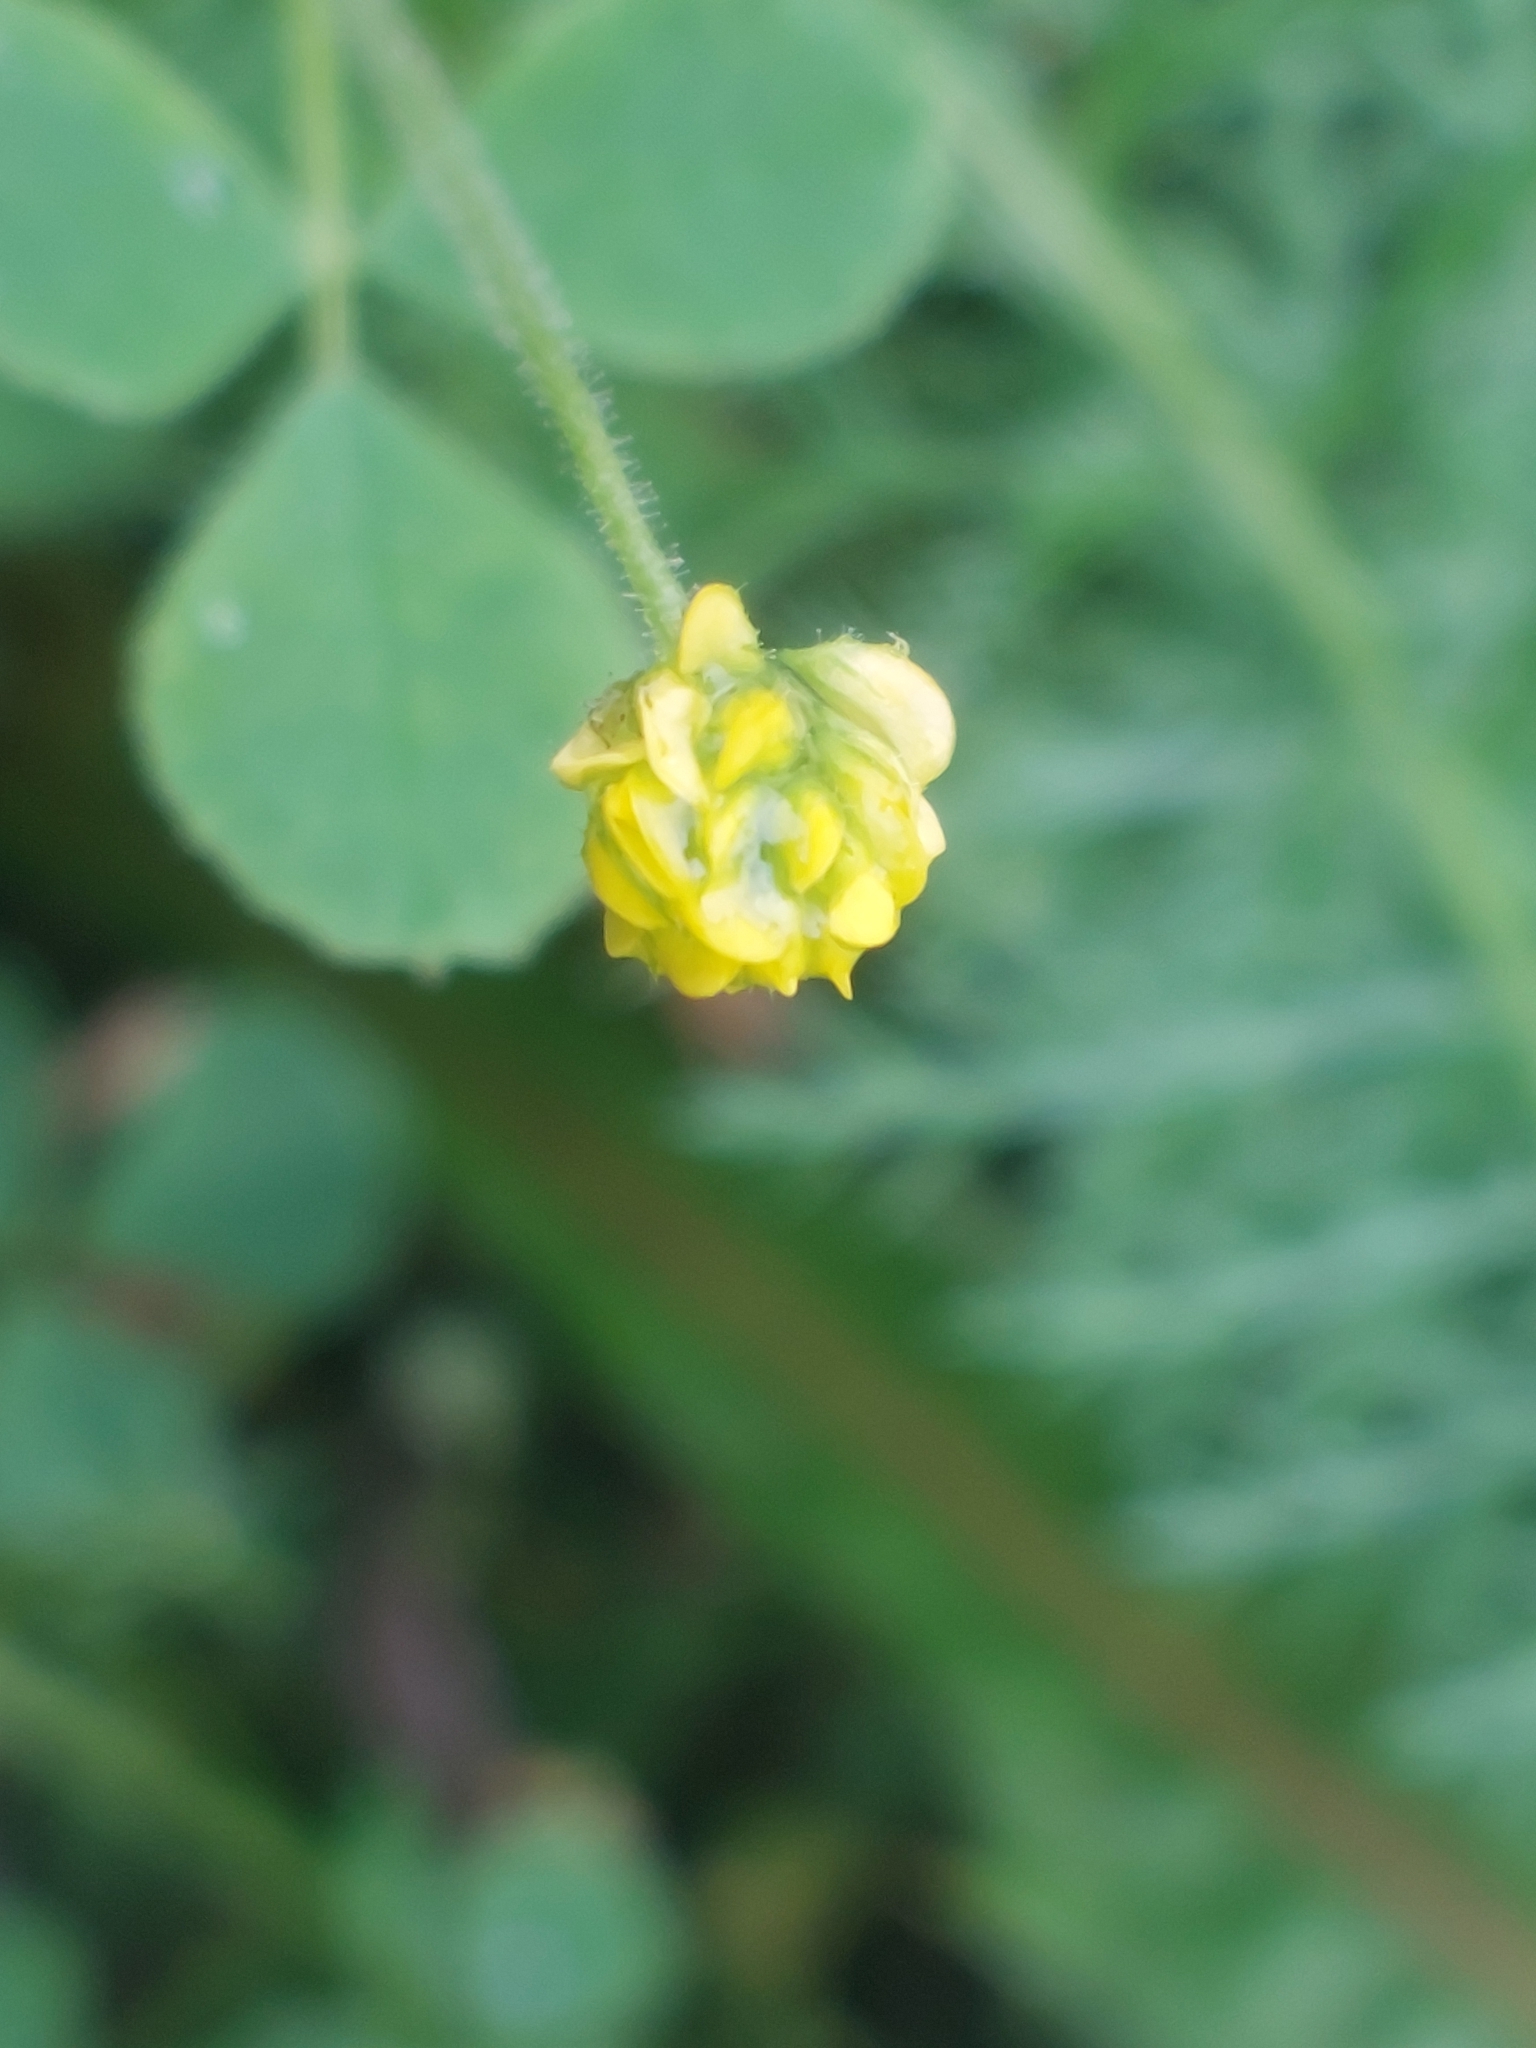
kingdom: Plantae
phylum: Tracheophyta
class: Magnoliopsida
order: Fabales
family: Fabaceae
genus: Medicago
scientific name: Medicago lupulina
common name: Black medick
